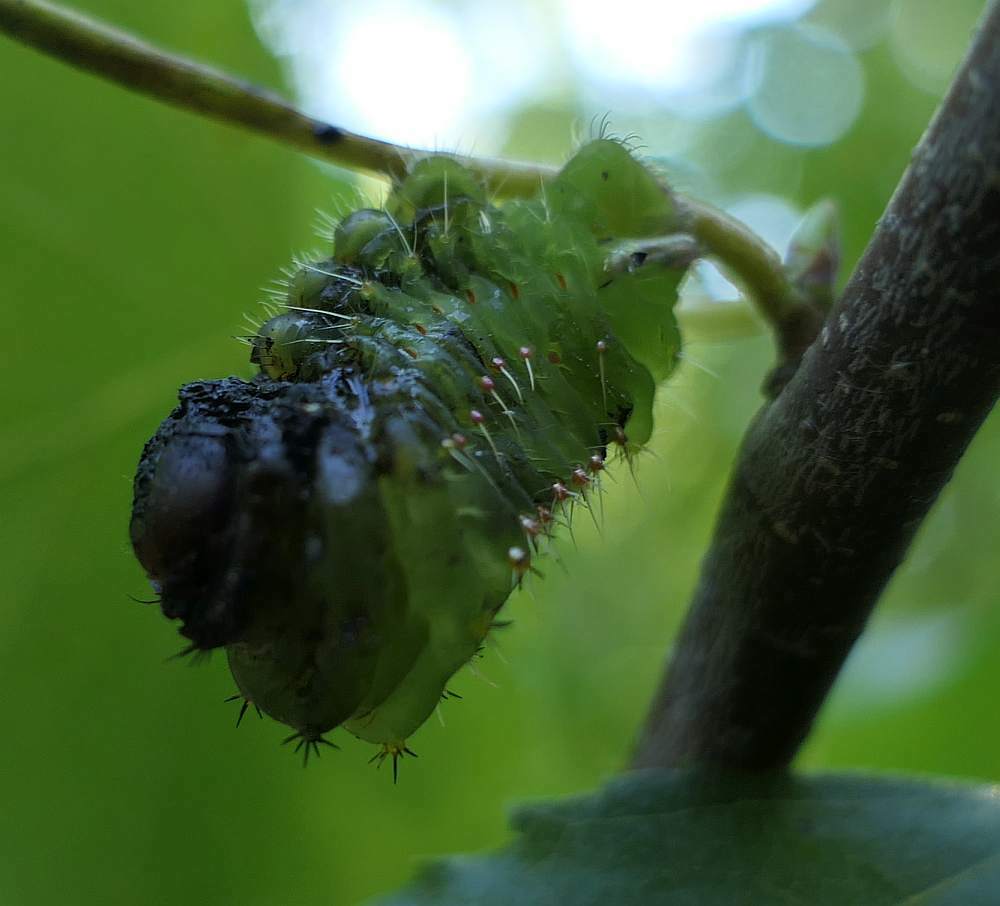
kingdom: Animalia
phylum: Arthropoda
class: Insecta
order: Lepidoptera
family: Saturniidae
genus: Antheraea
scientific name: Antheraea polyphemus
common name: Polyphemus moth
